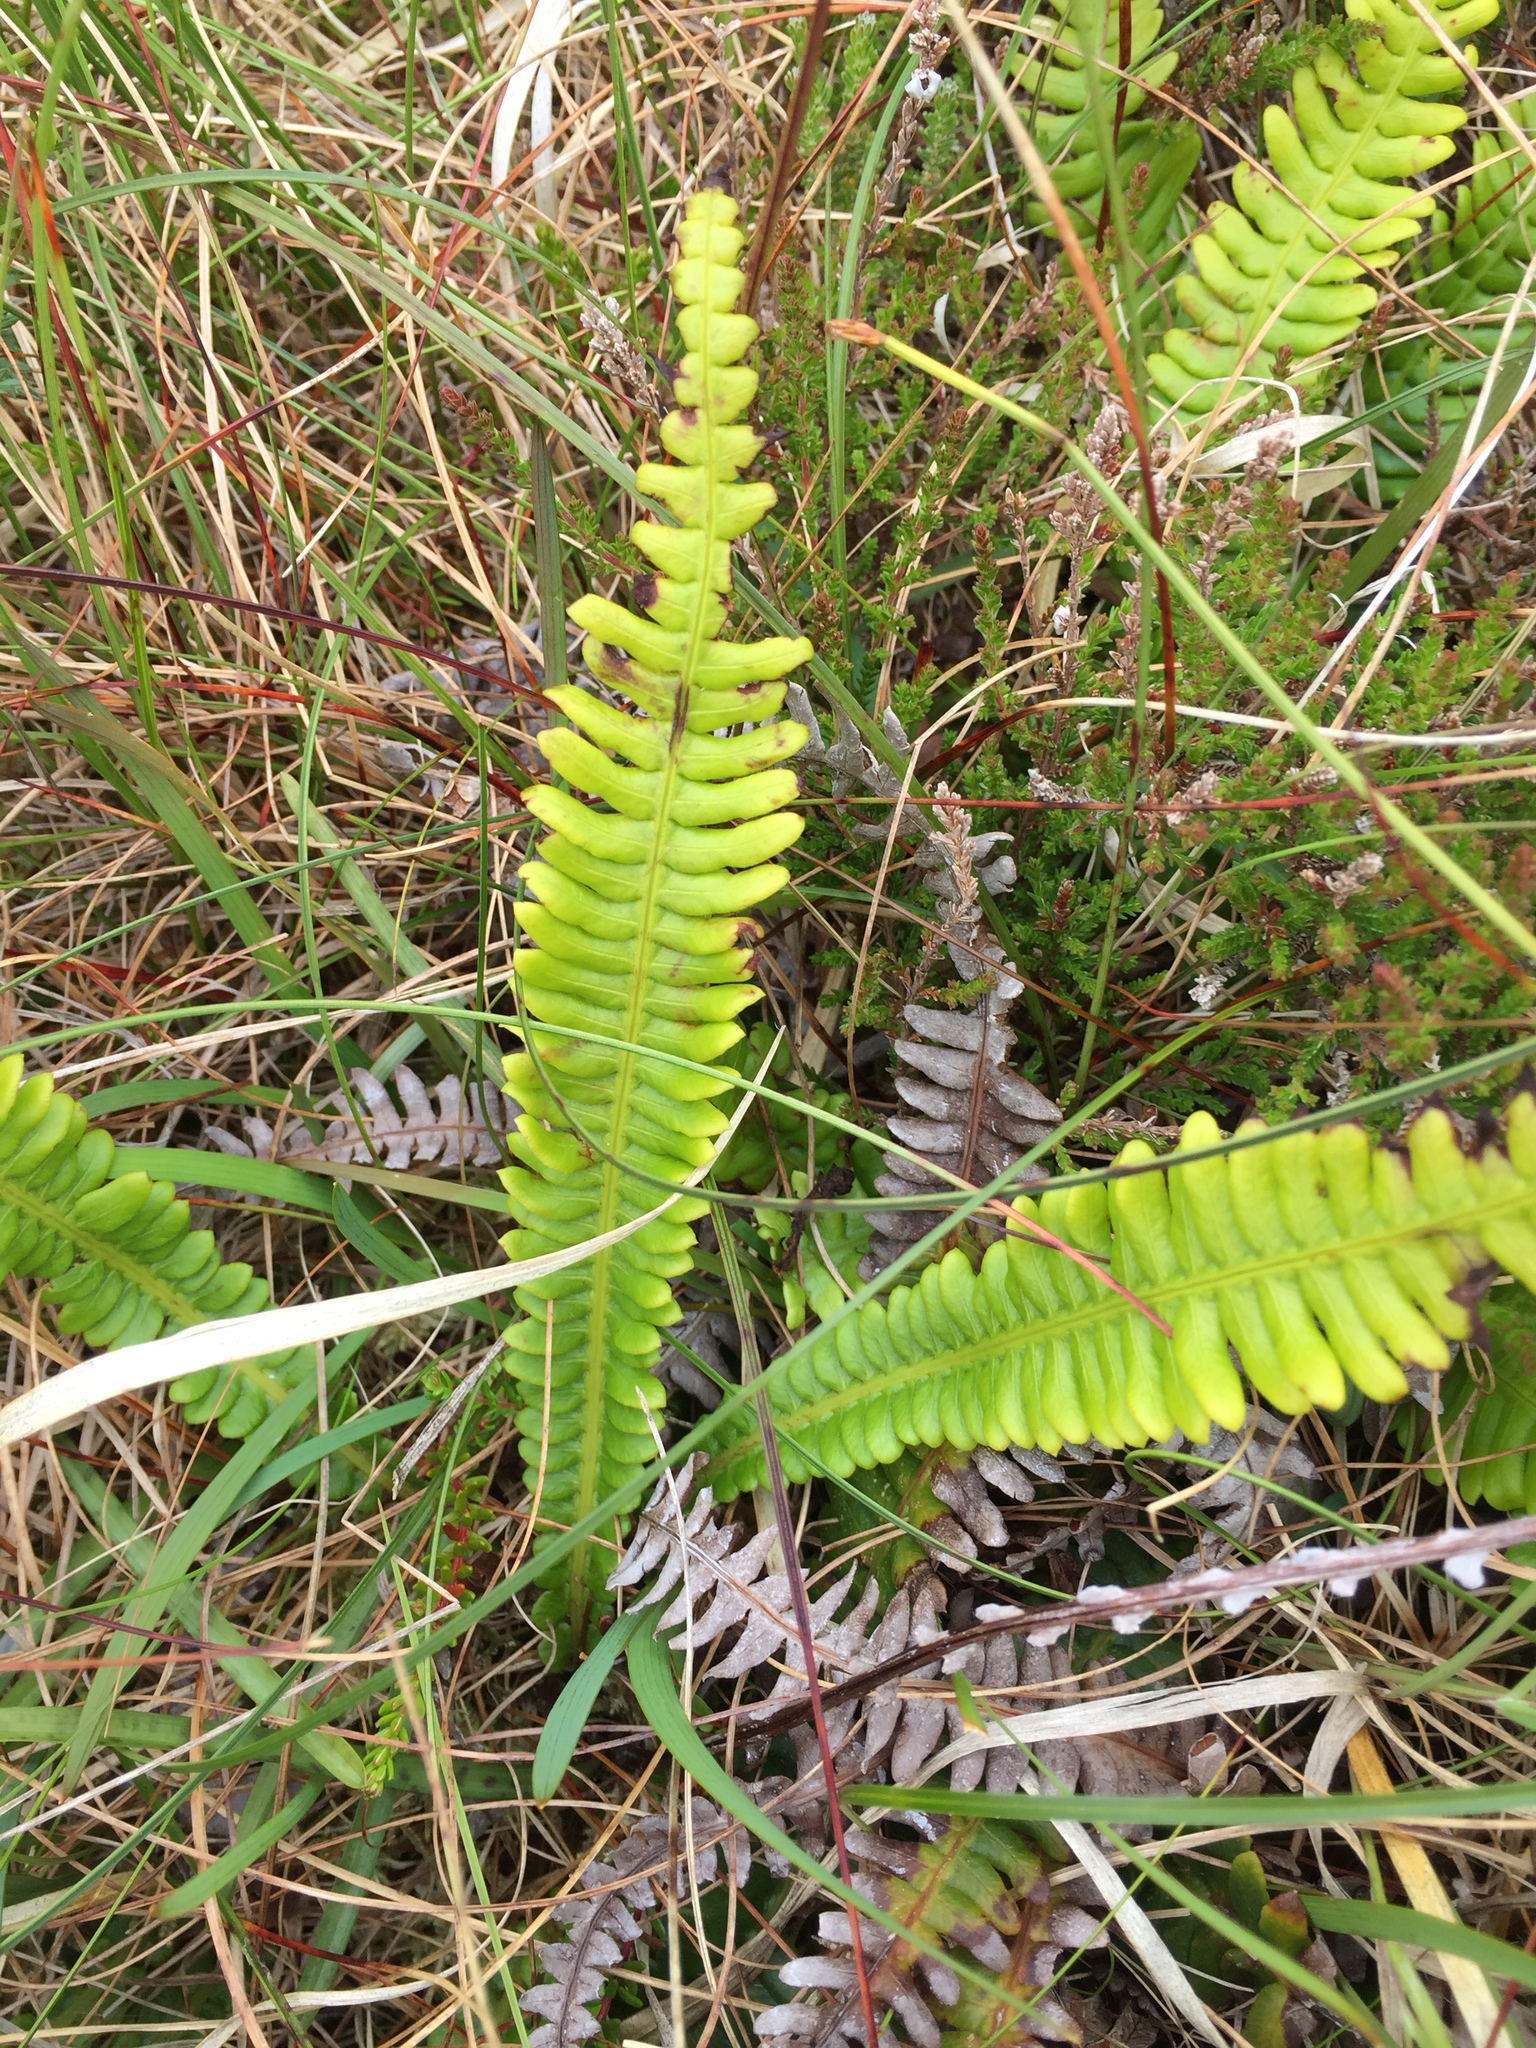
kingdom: Plantae
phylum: Tracheophyta
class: Polypodiopsida
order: Polypodiales
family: Blechnaceae
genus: Struthiopteris
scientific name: Struthiopteris spicant
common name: Deer fern
